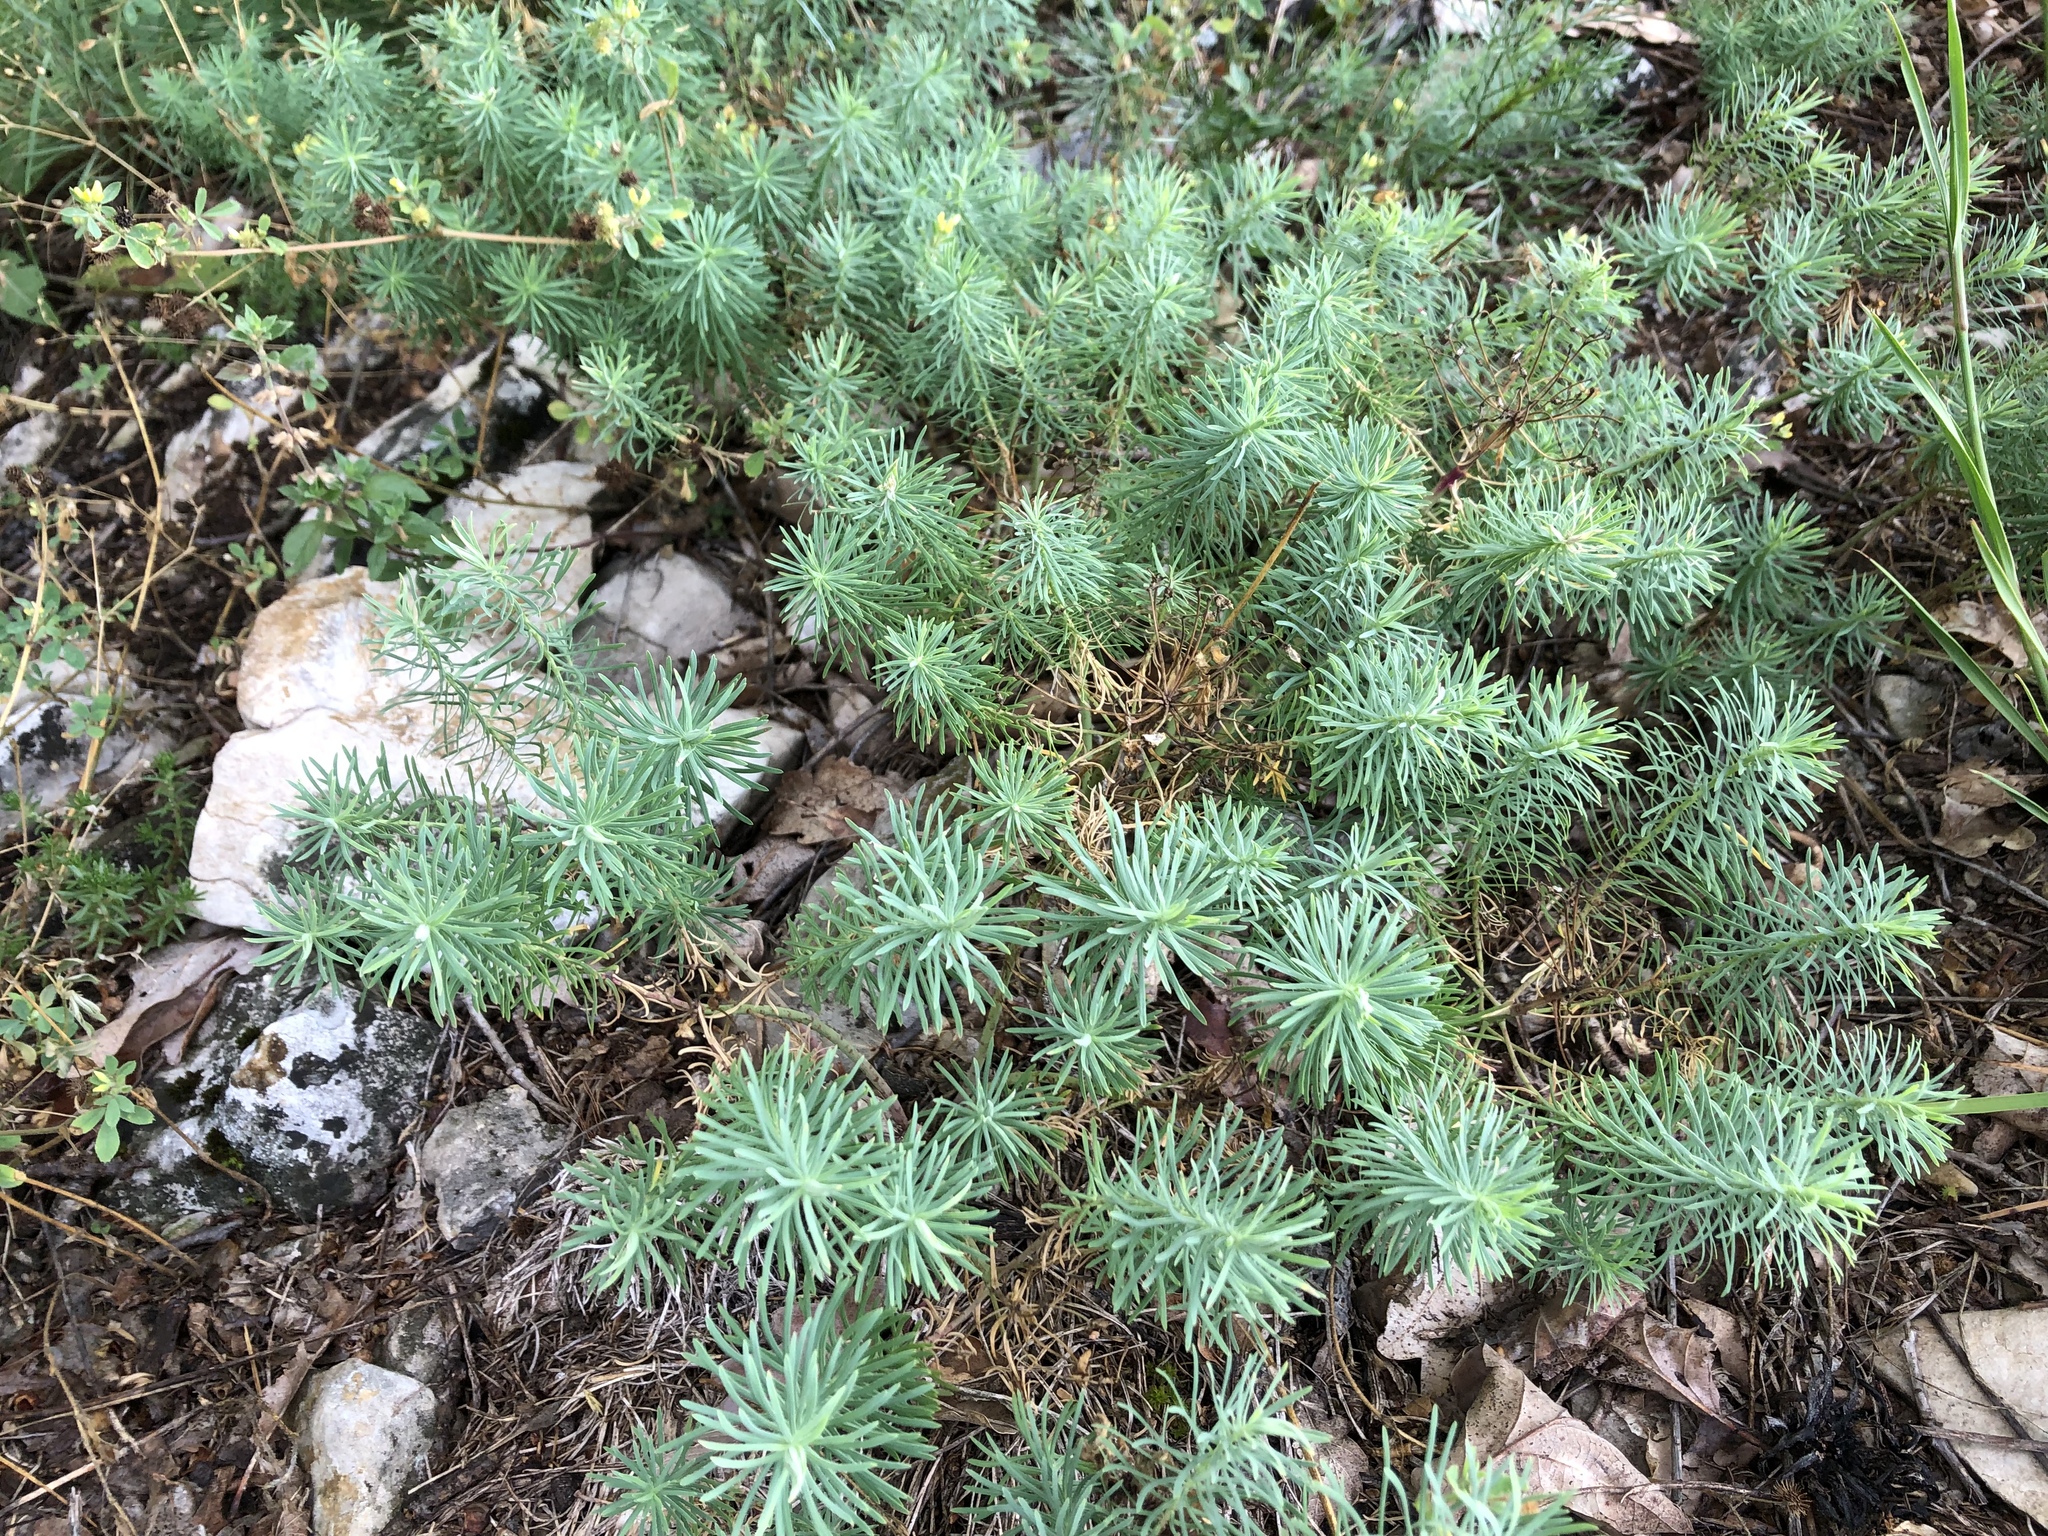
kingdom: Plantae
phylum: Tracheophyta
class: Magnoliopsida
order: Malpighiales
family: Euphorbiaceae
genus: Euphorbia
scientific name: Euphorbia cyparissias
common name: Cypress spurge
